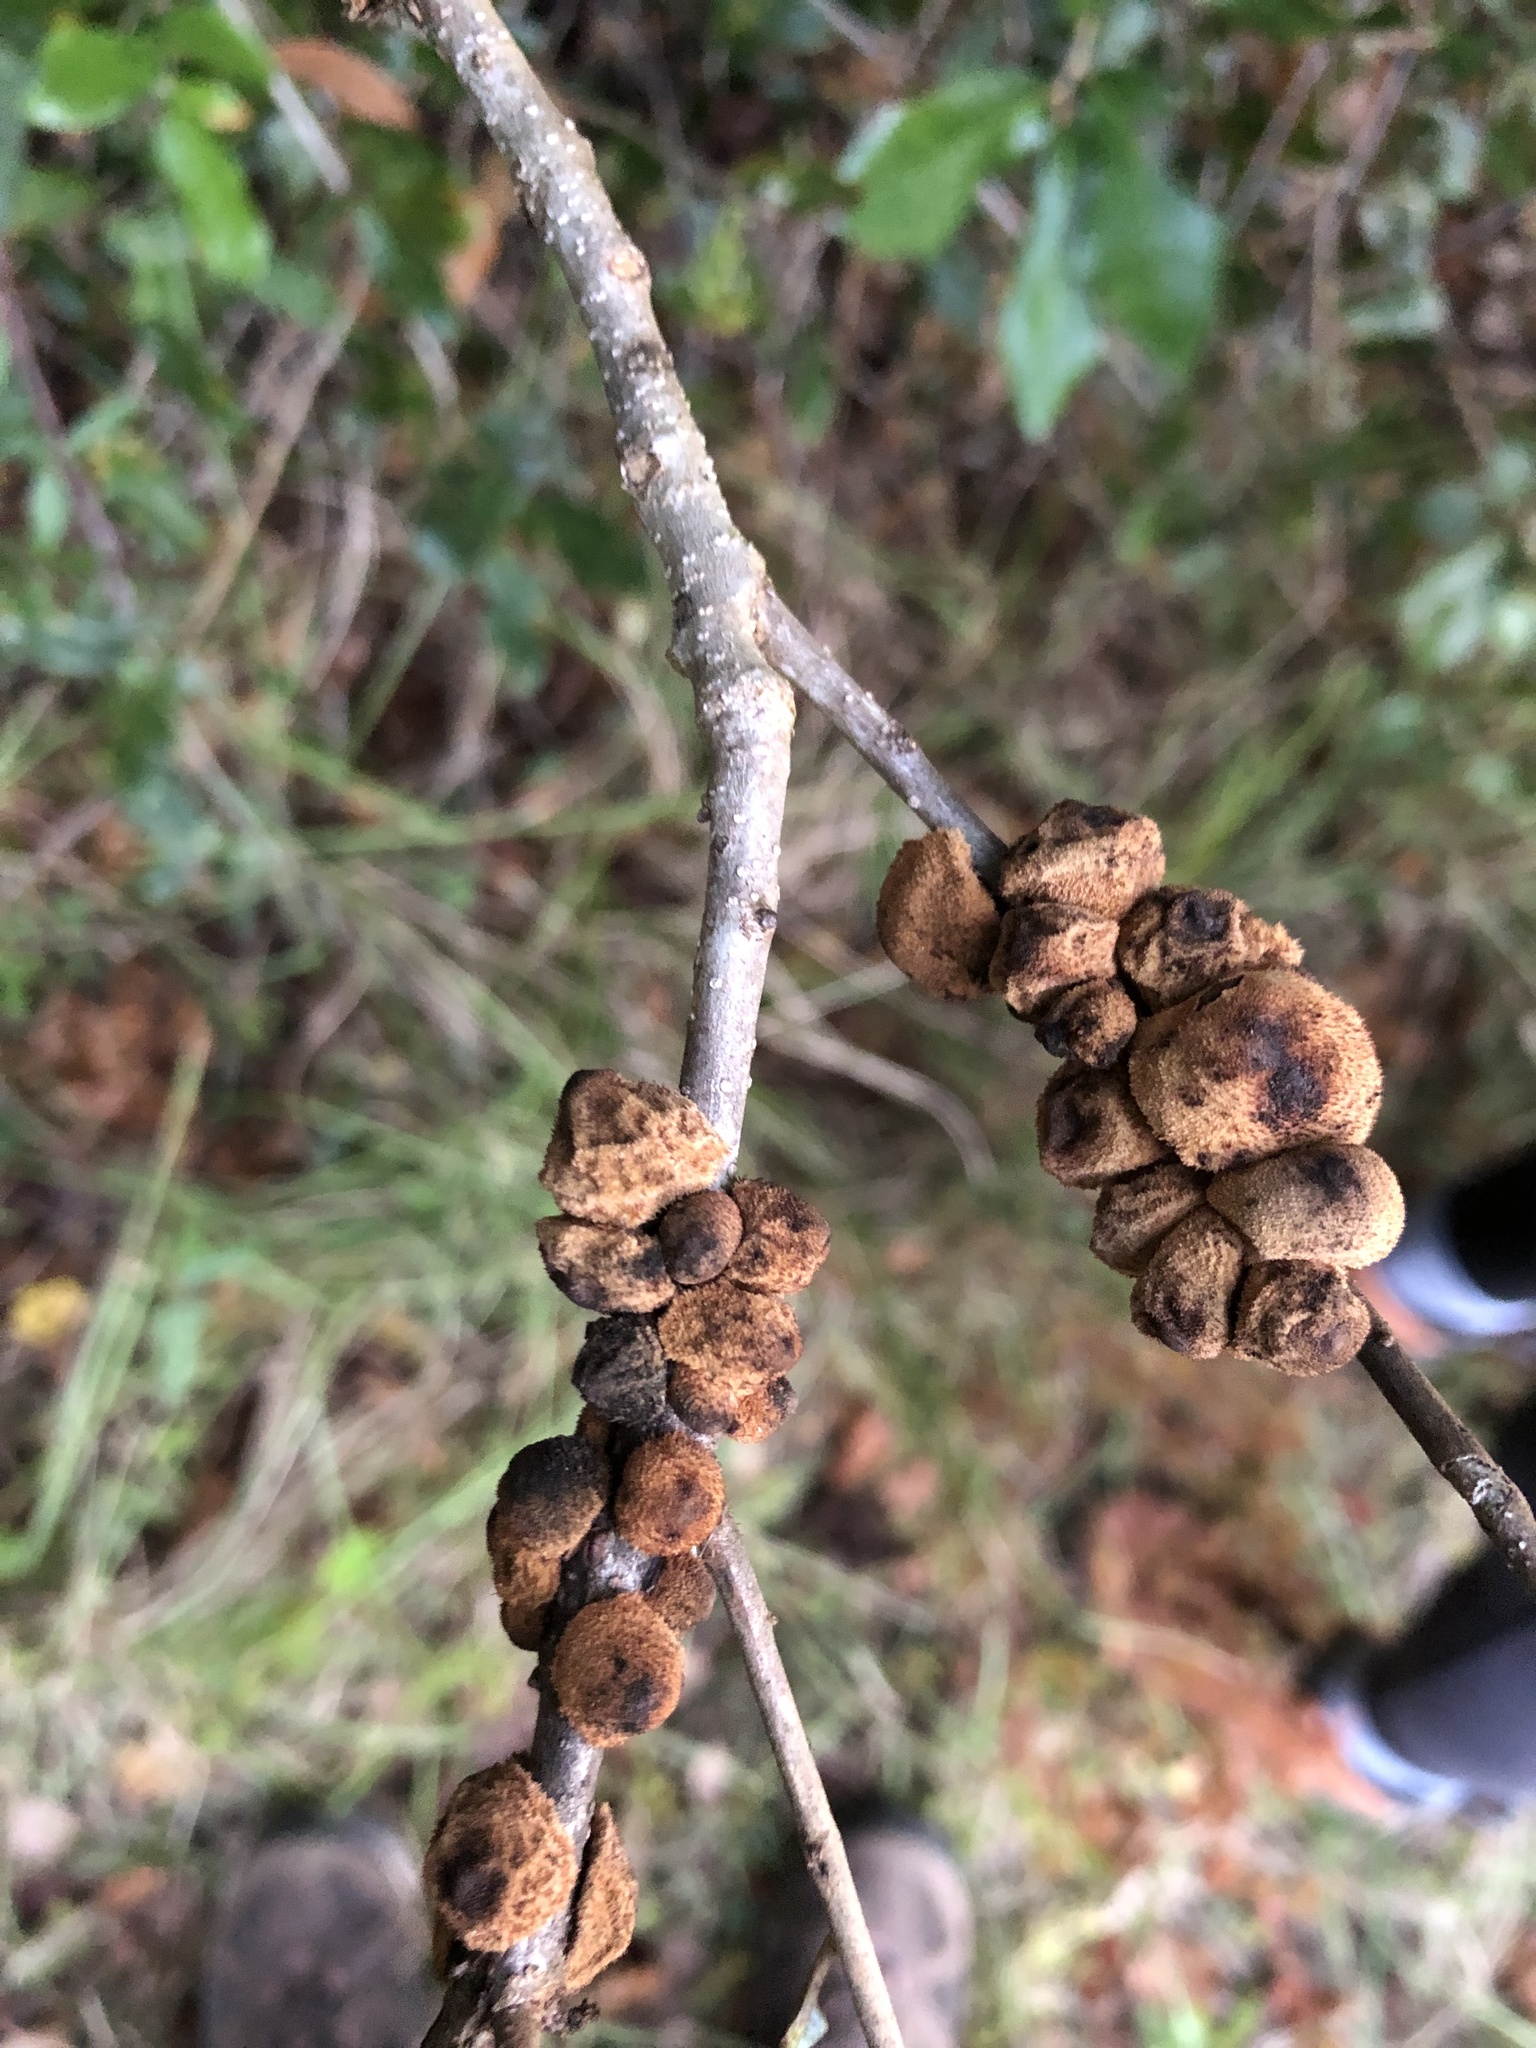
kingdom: Animalia
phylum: Arthropoda
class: Insecta
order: Hymenoptera
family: Cynipidae
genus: Disholcaspis
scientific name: Disholcaspis
